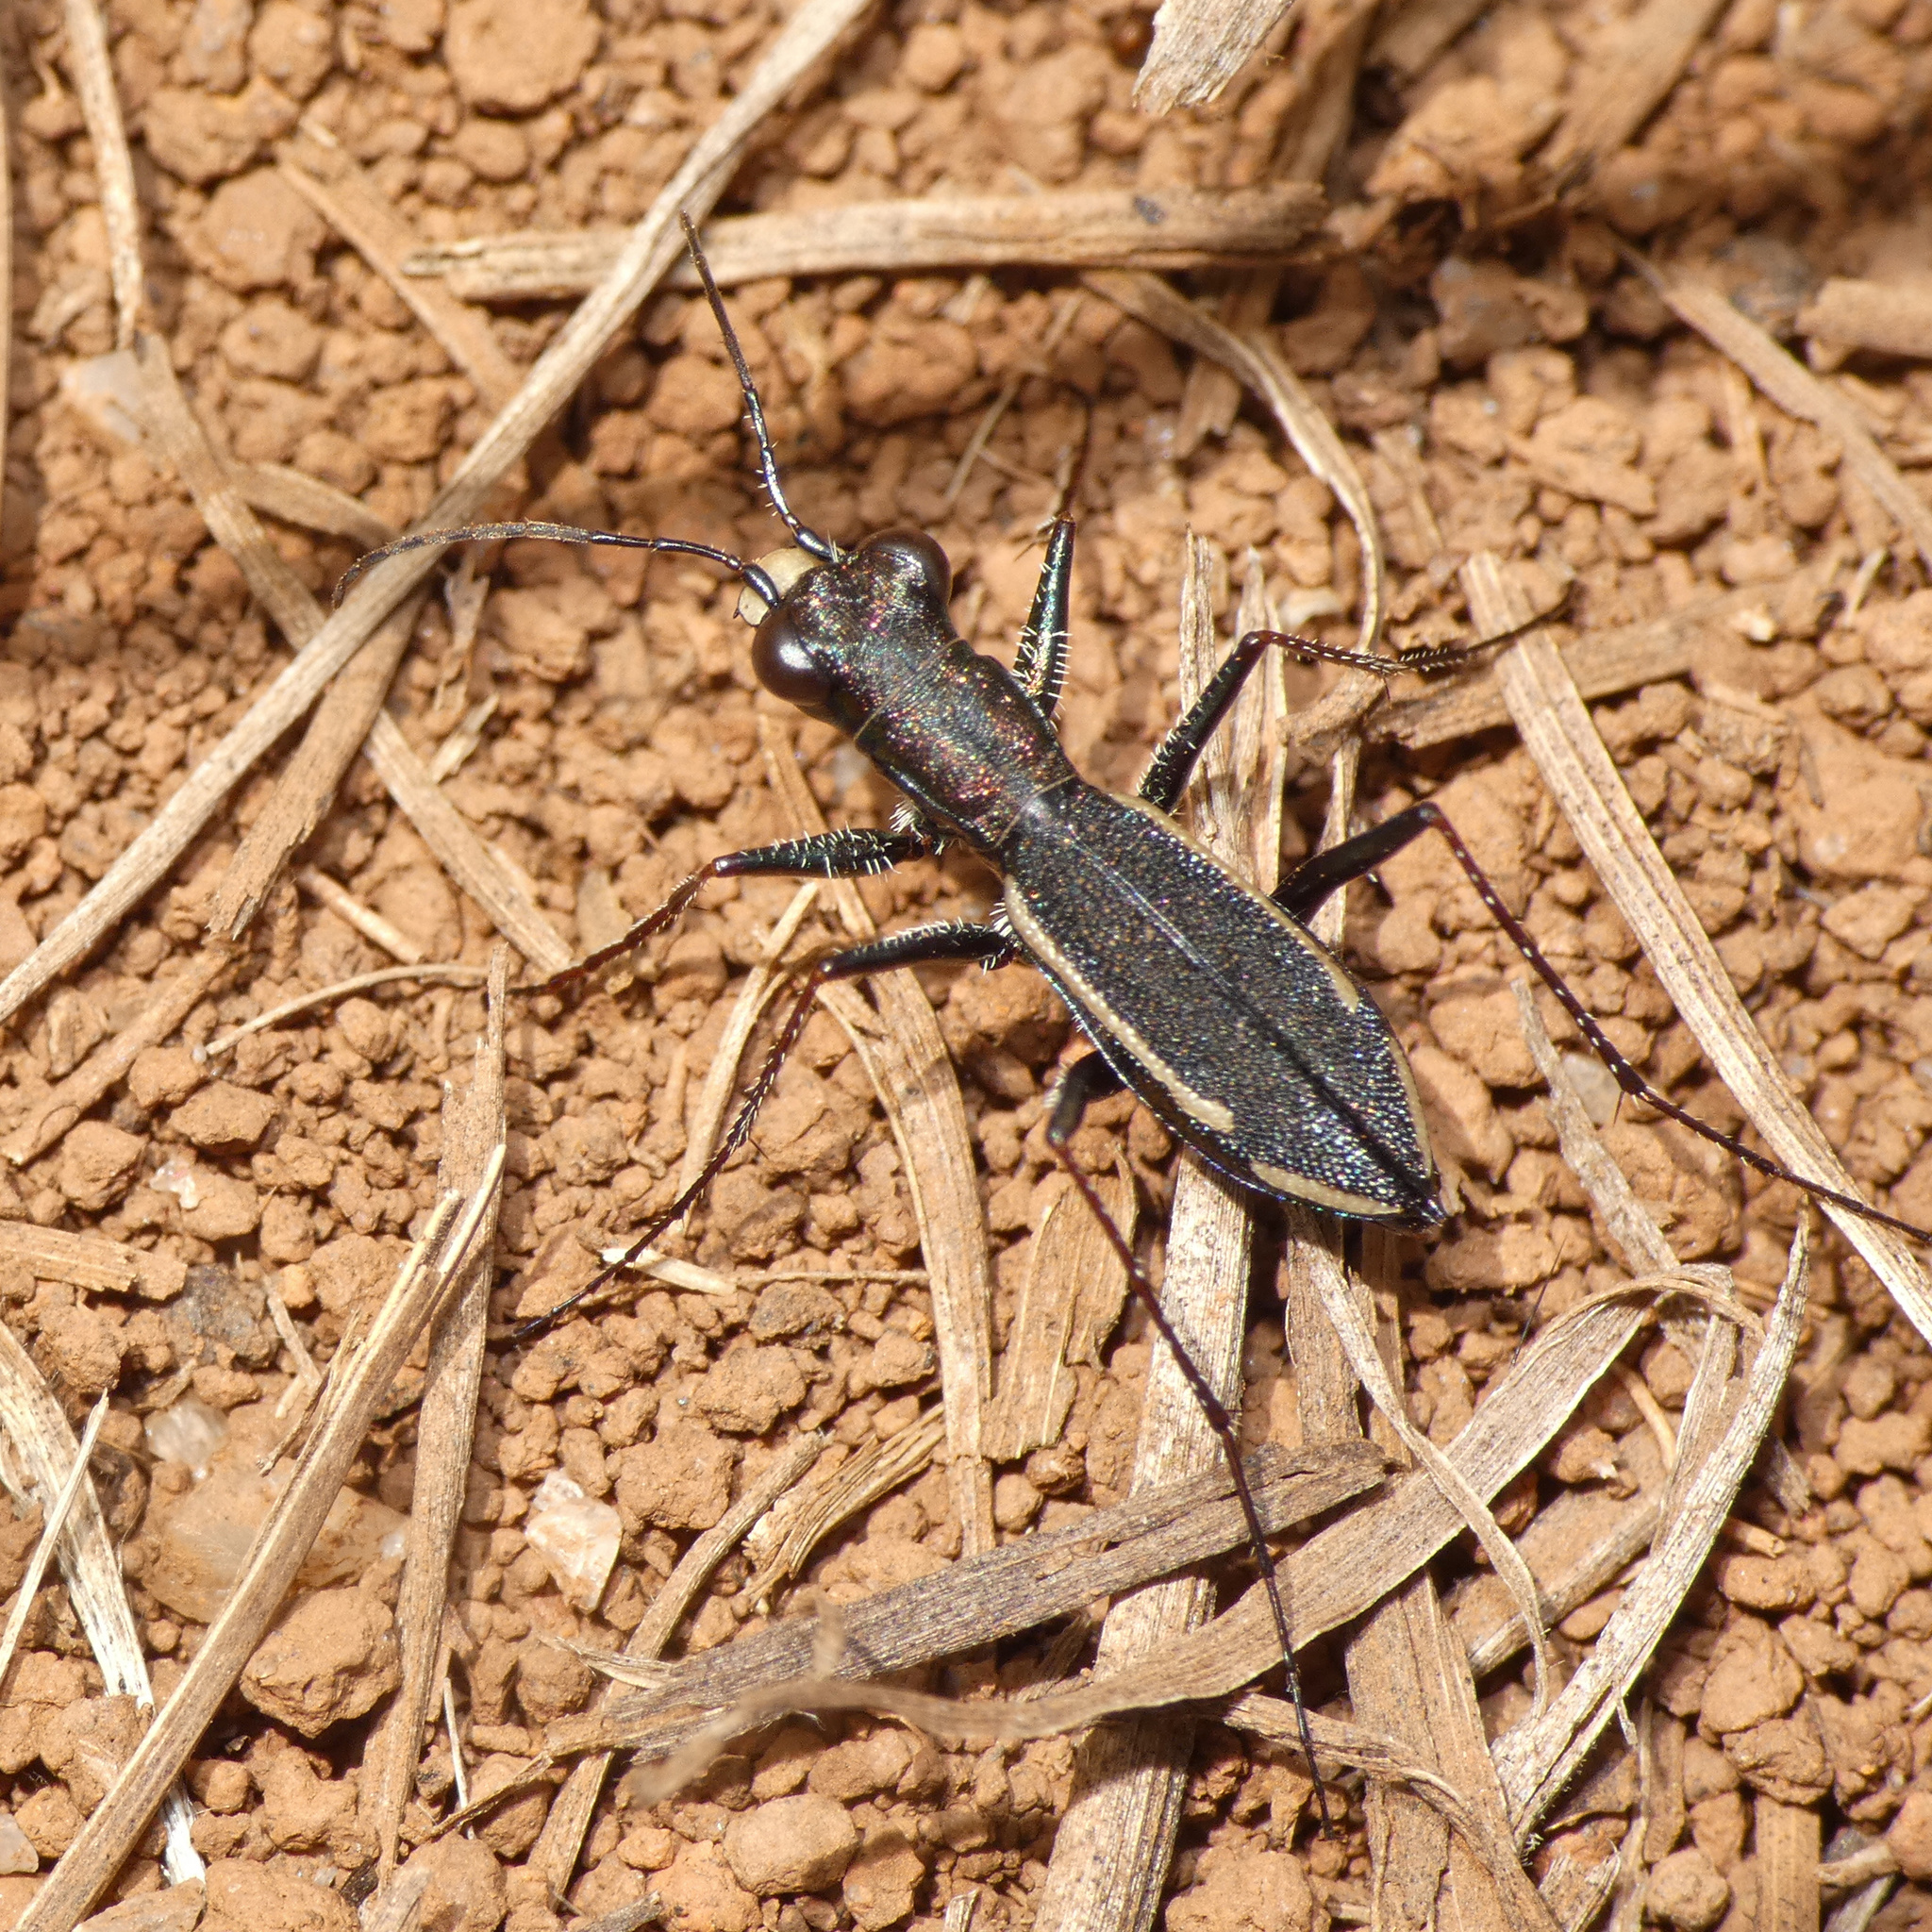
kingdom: Animalia
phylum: Arthropoda
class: Insecta
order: Coleoptera
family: Carabidae
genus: Dromica
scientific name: Dromica pseudocoarctata
